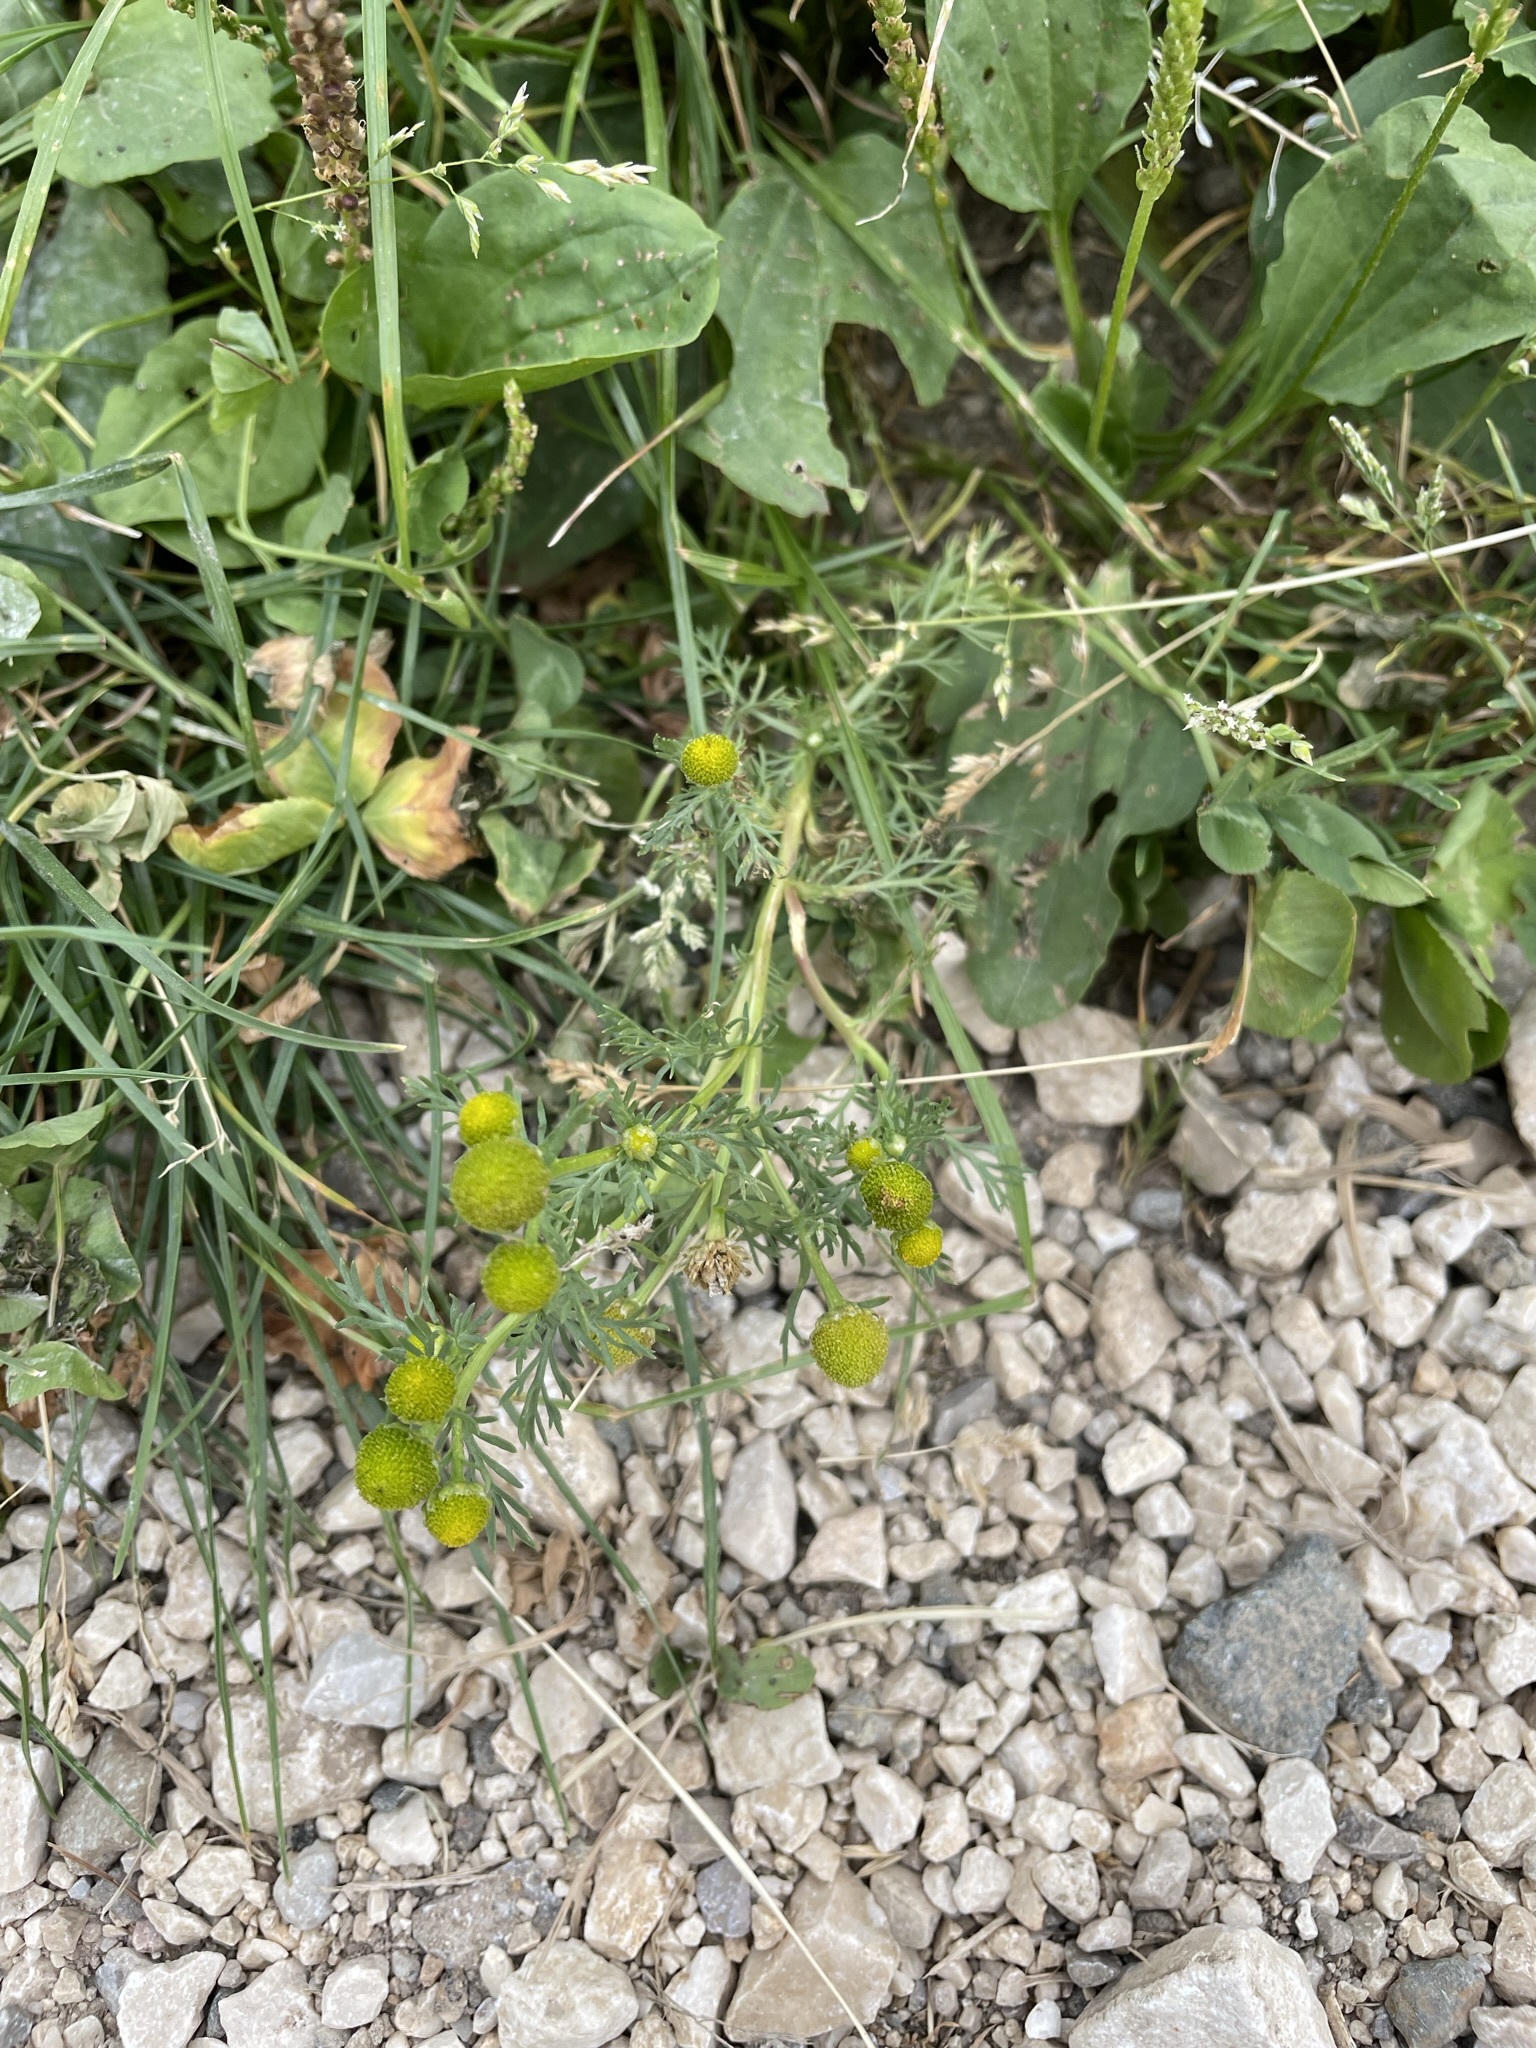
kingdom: Plantae
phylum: Tracheophyta
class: Magnoliopsida
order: Asterales
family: Asteraceae
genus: Matricaria
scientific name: Matricaria discoidea
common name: Disc mayweed
